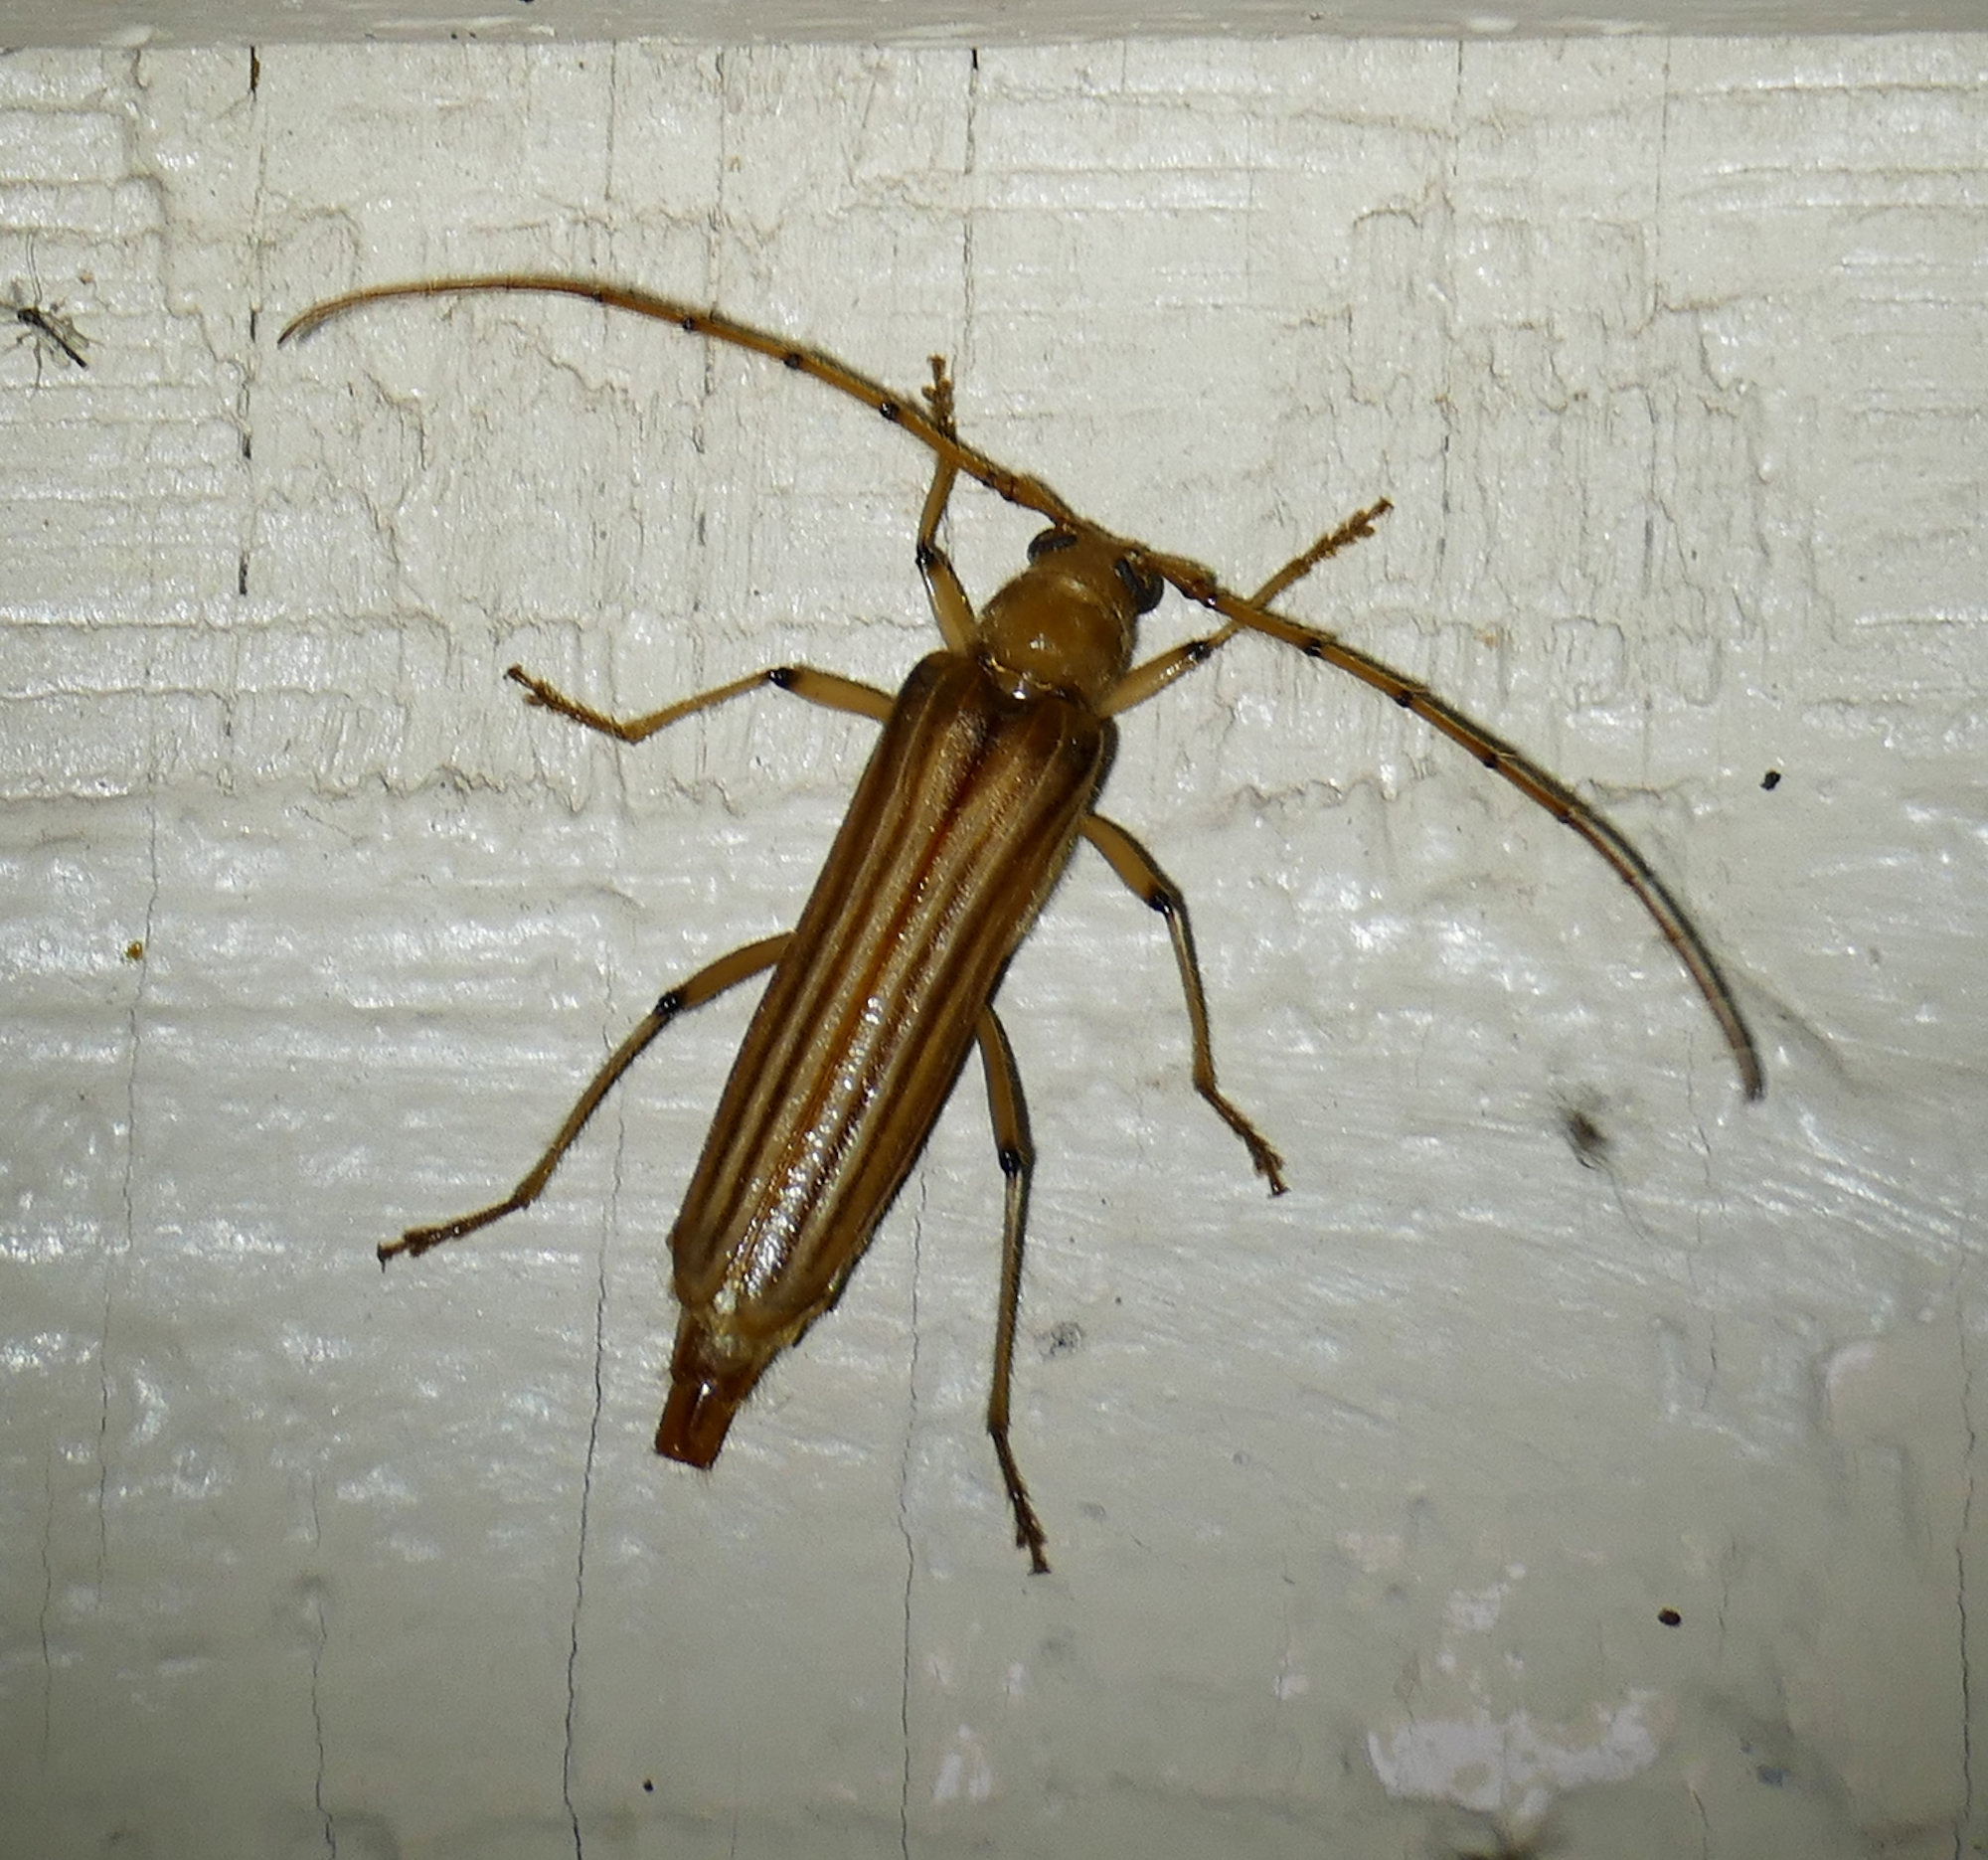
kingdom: Animalia
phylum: Arthropoda
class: Insecta
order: Coleoptera
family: Cerambycidae
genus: Malacopterus
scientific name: Malacopterus tenellus
